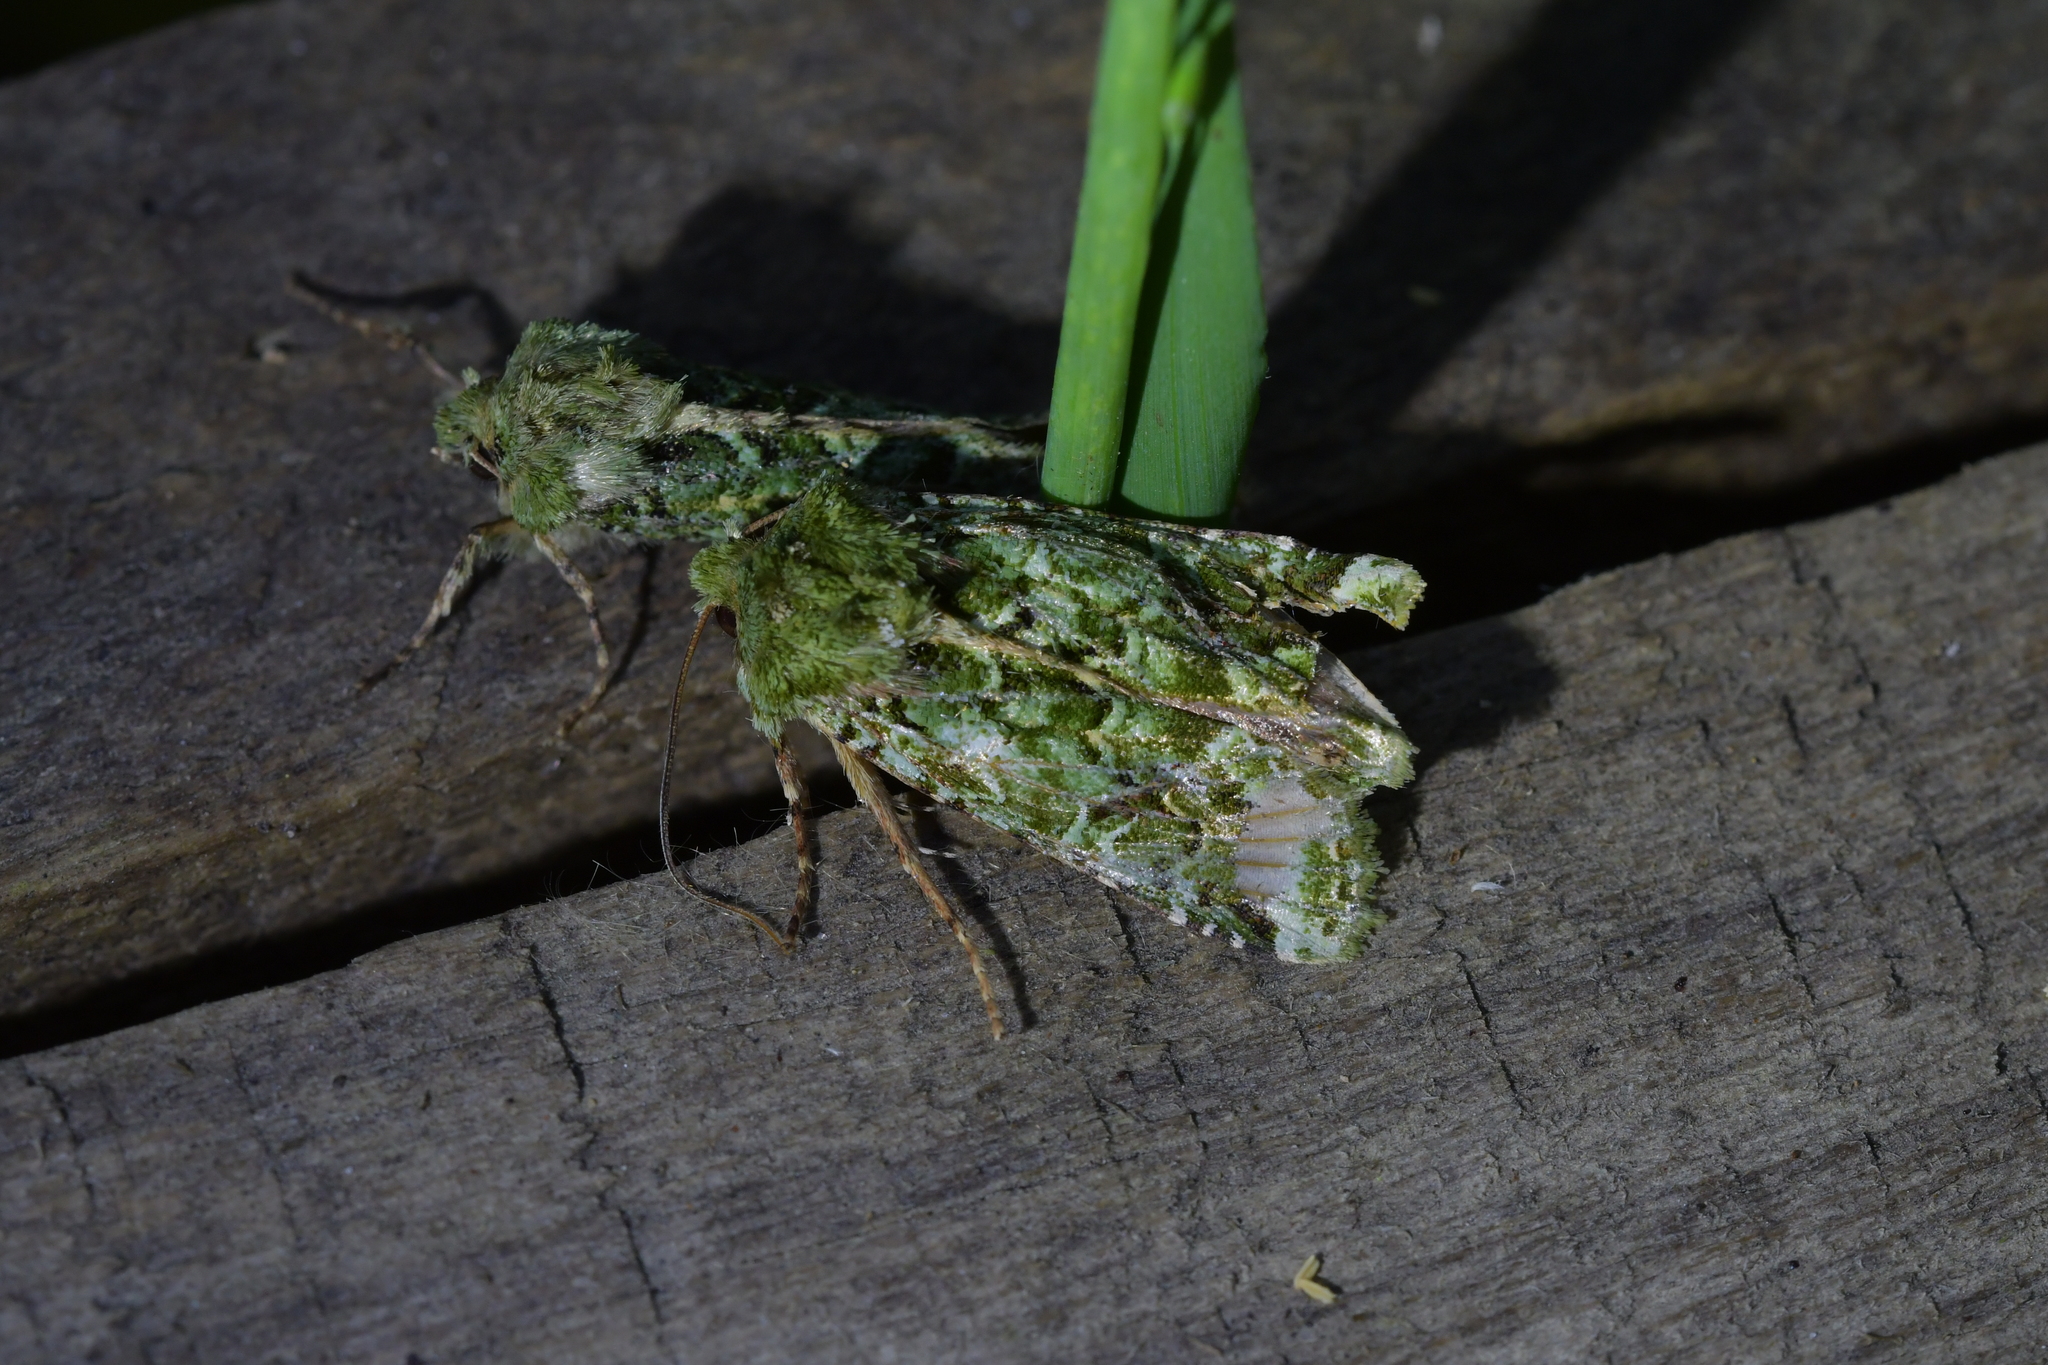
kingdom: Animalia
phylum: Arthropoda
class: Insecta
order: Lepidoptera
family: Noctuidae
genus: Feredayia
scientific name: Feredayia grammosa
